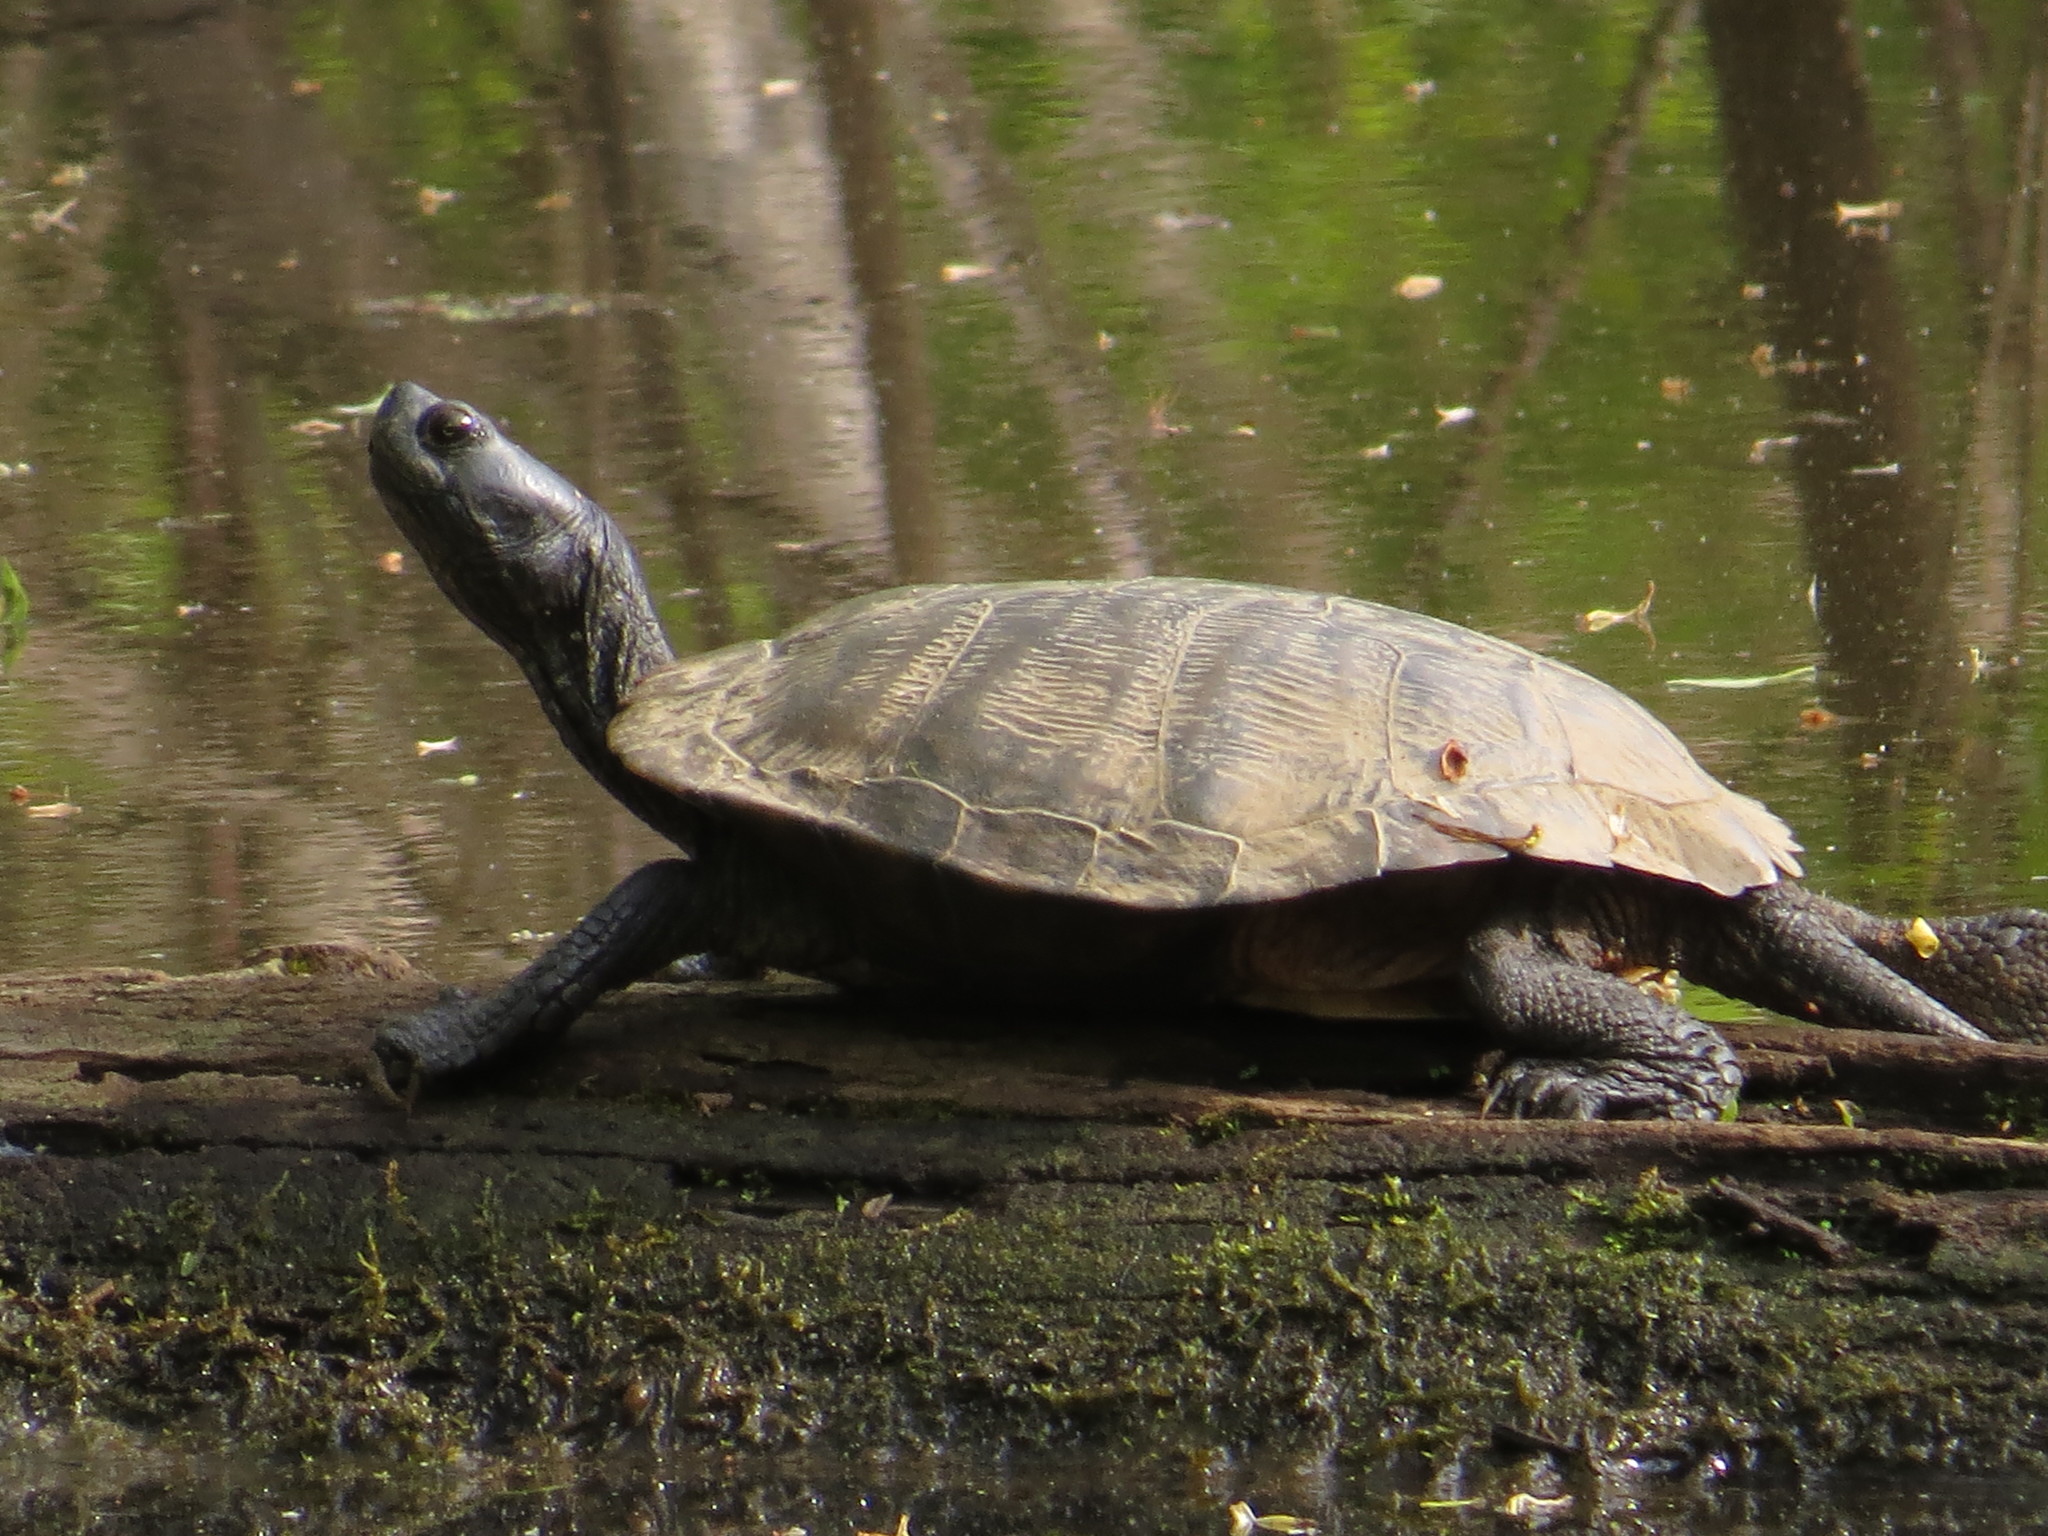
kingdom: Animalia
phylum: Chordata
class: Testudines
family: Emydidae
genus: Trachemys
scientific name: Trachemys scripta
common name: Slider
